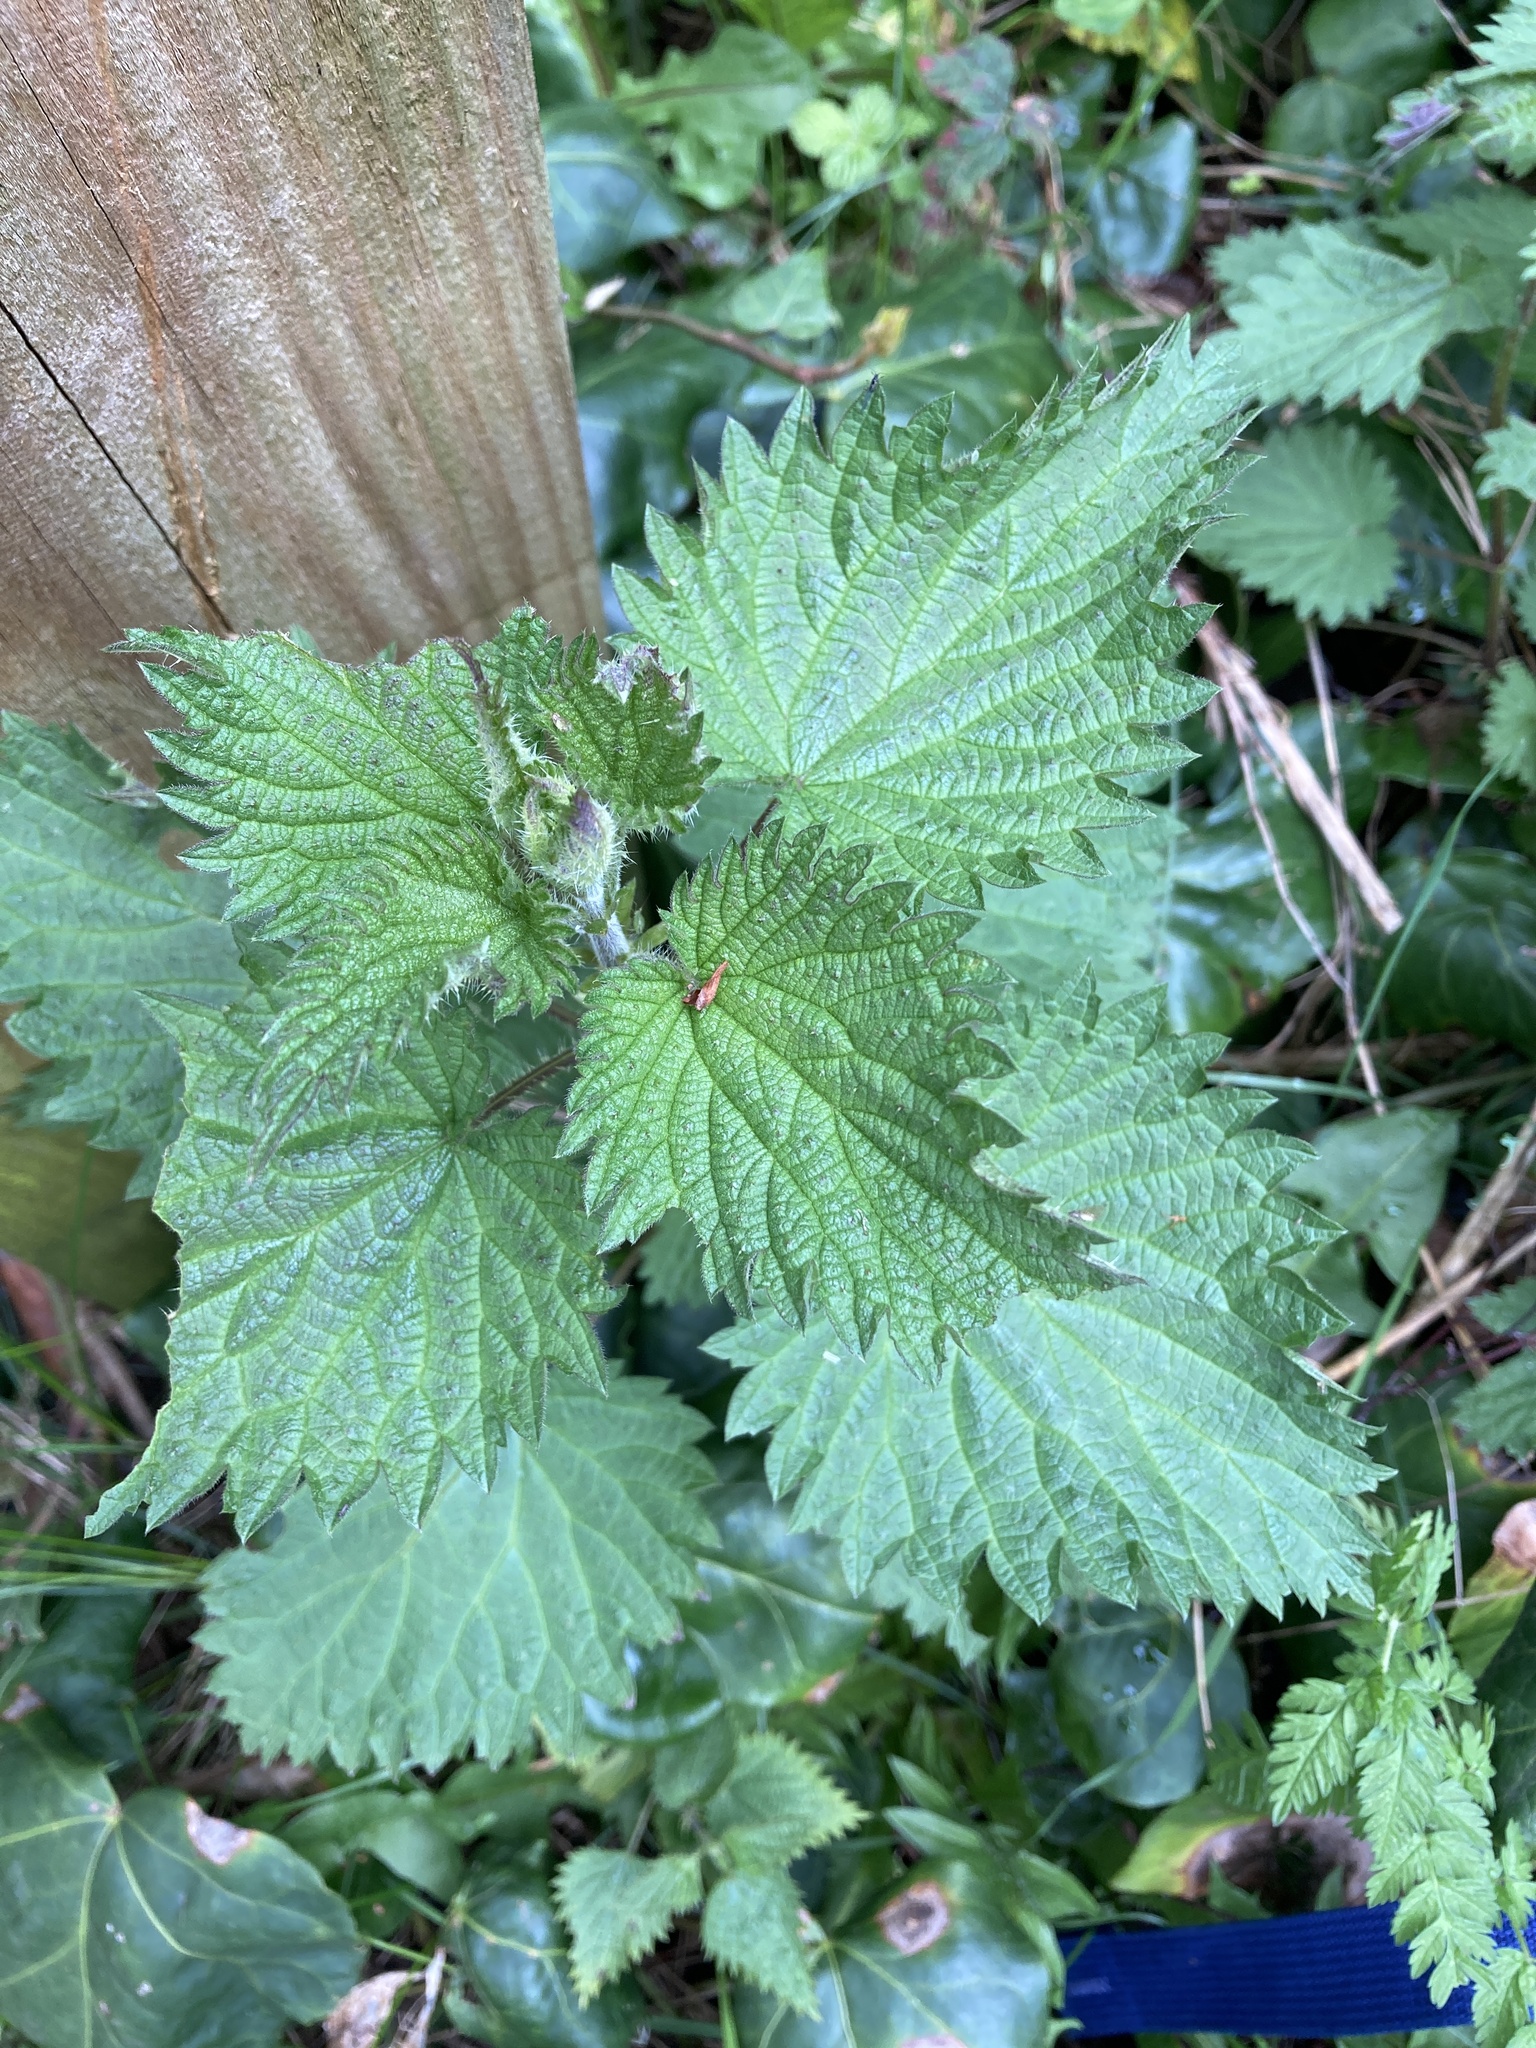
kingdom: Plantae
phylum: Tracheophyta
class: Magnoliopsida
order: Rosales
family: Urticaceae
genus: Urtica
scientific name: Urtica dioica
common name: Common nettle
